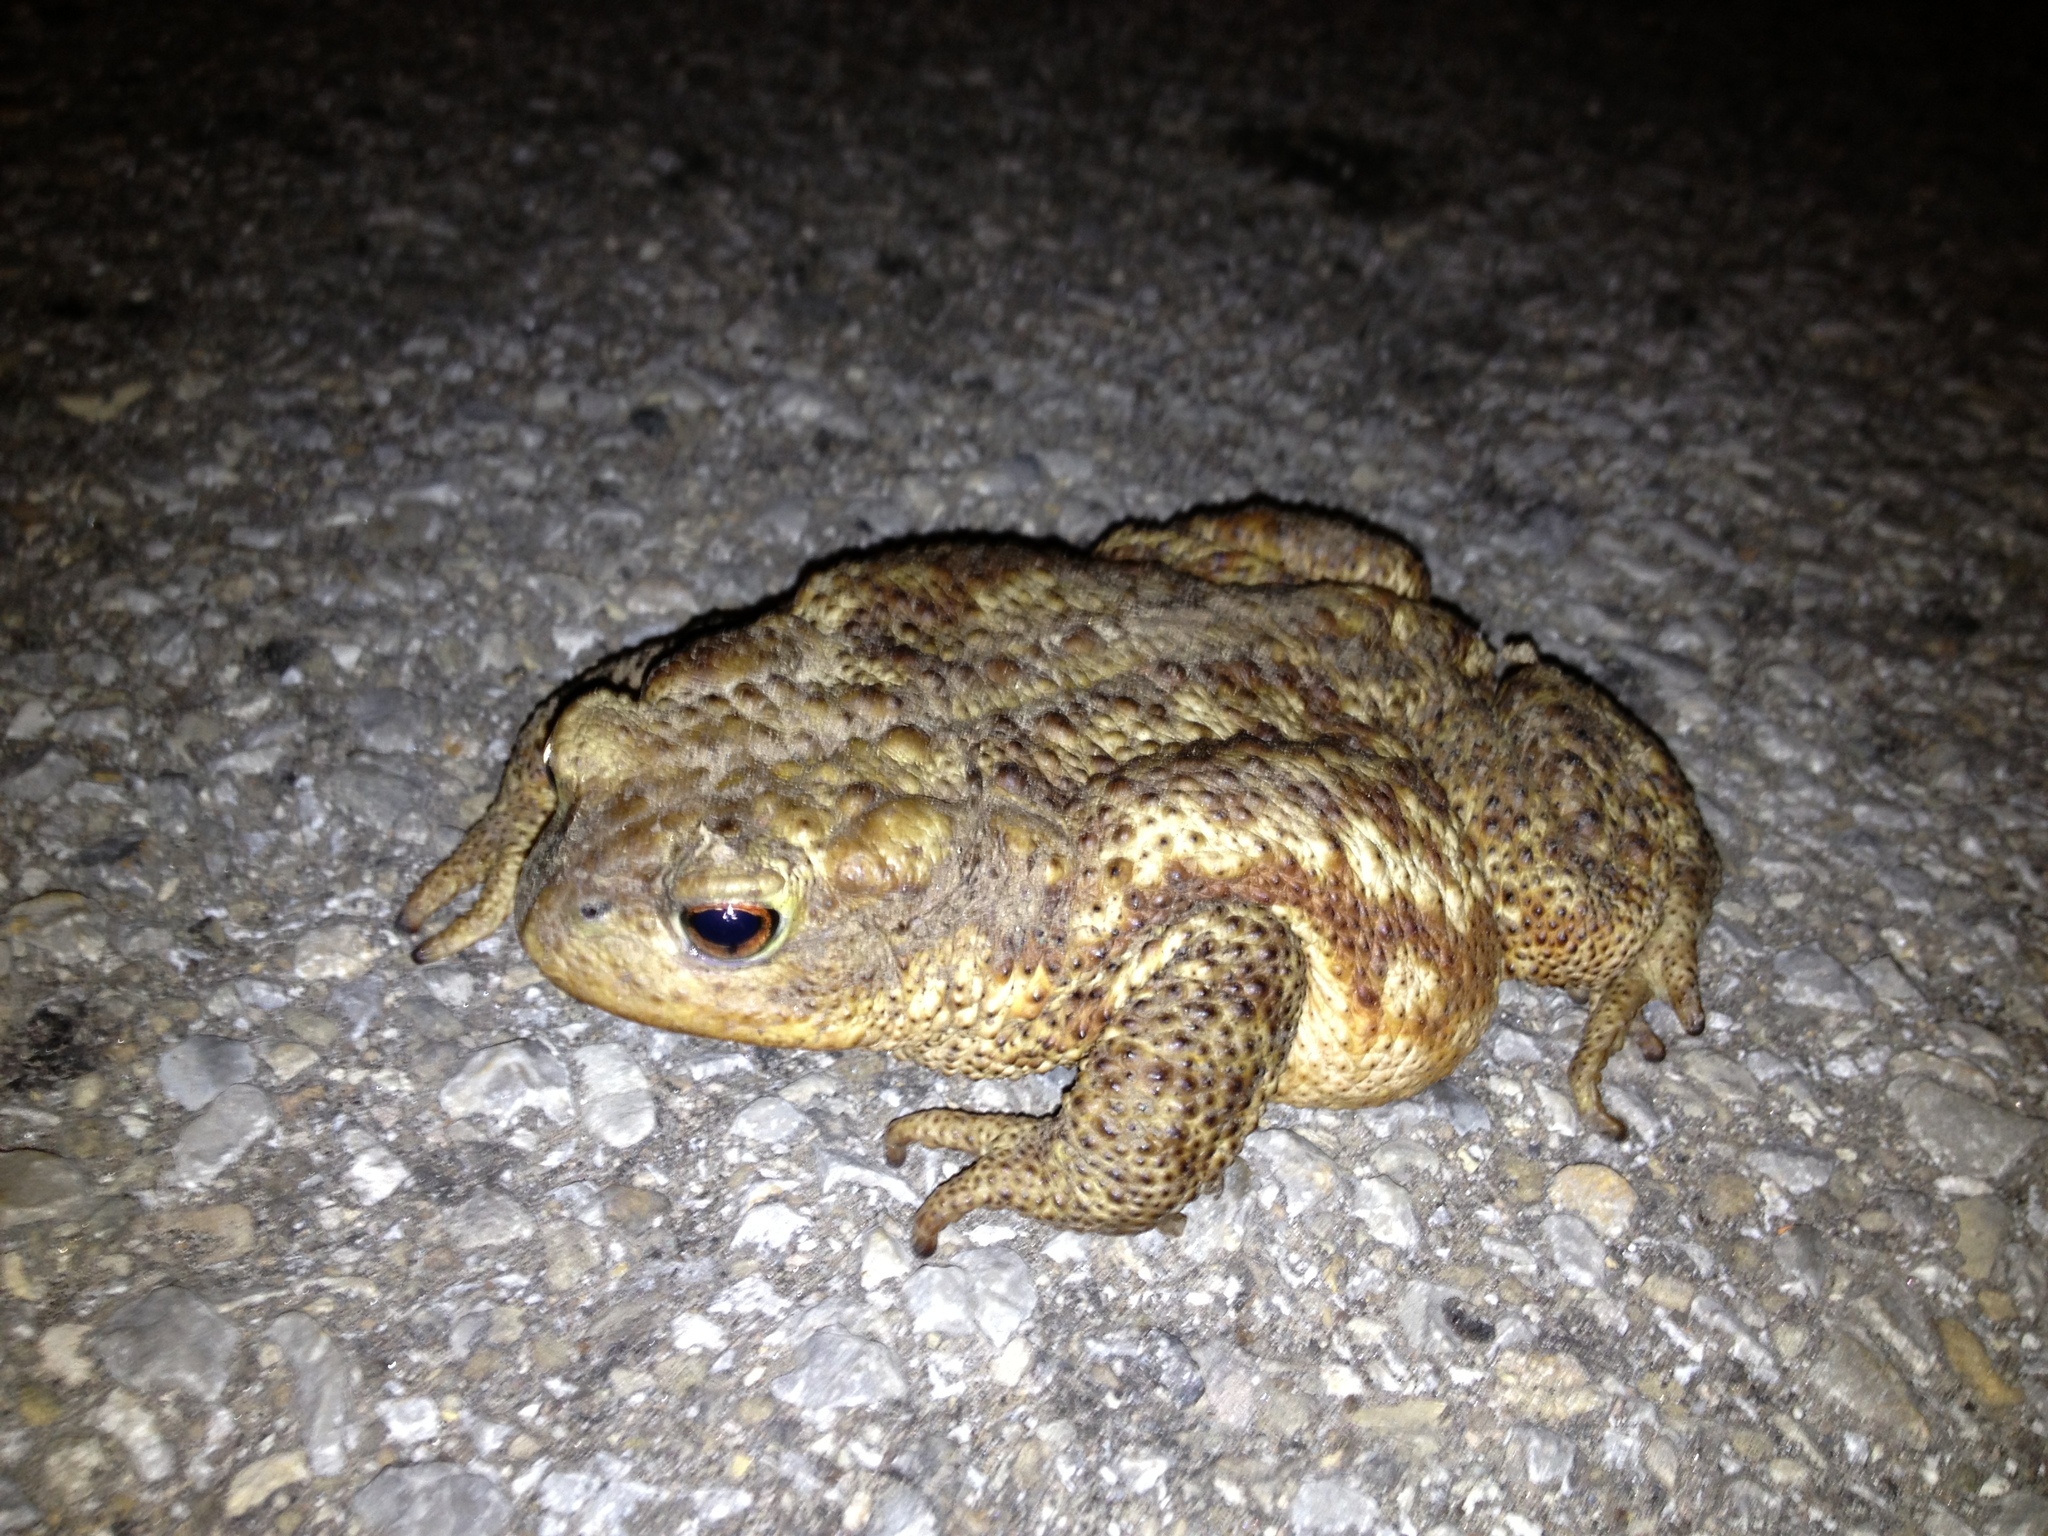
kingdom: Animalia
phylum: Chordata
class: Amphibia
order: Anura
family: Bufonidae
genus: Bufo
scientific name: Bufo bufo
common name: Common toad
